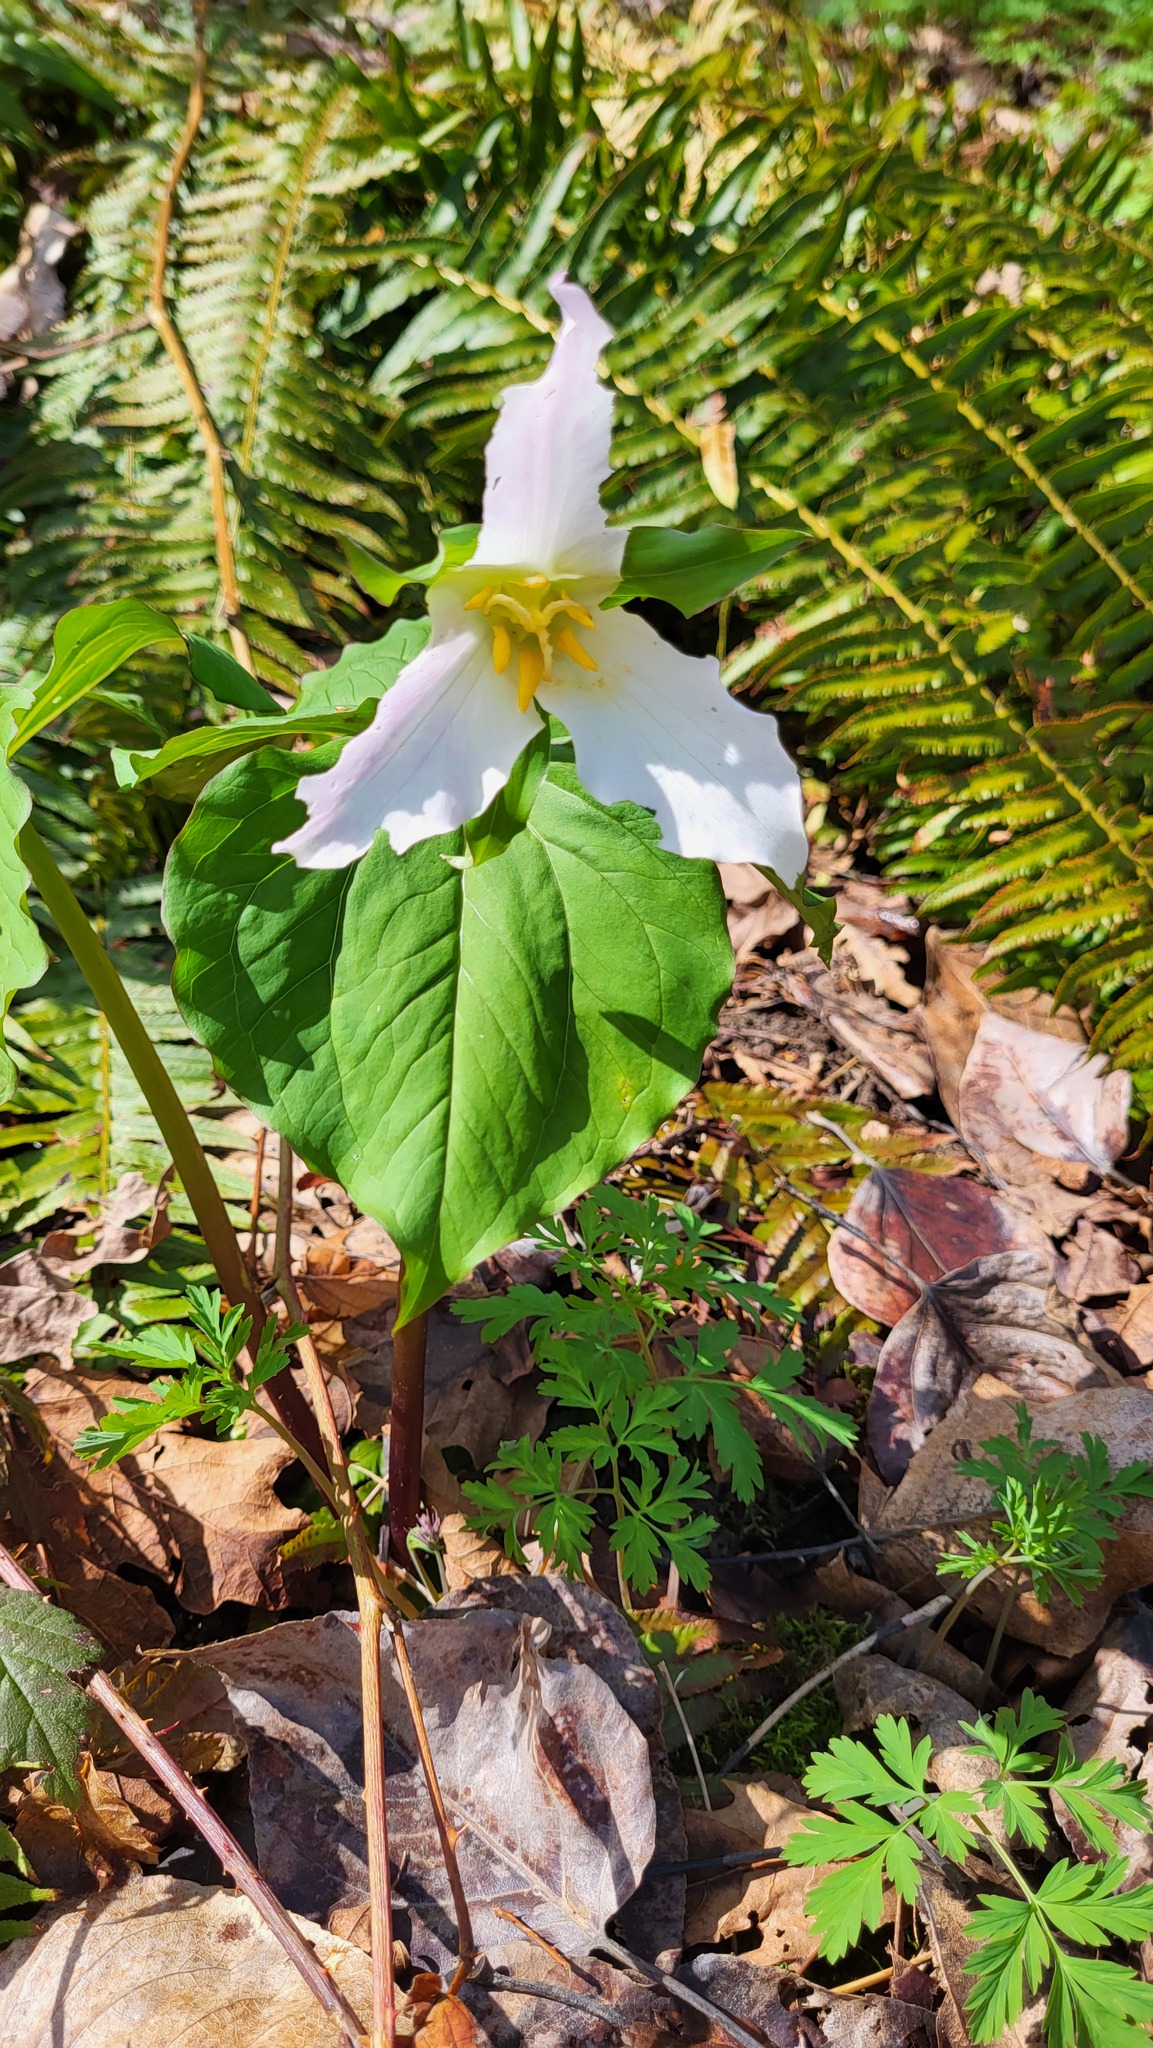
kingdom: Plantae
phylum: Tracheophyta
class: Liliopsida
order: Liliales
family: Melanthiaceae
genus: Trillium
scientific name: Trillium ovatum
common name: Pacific trillium
